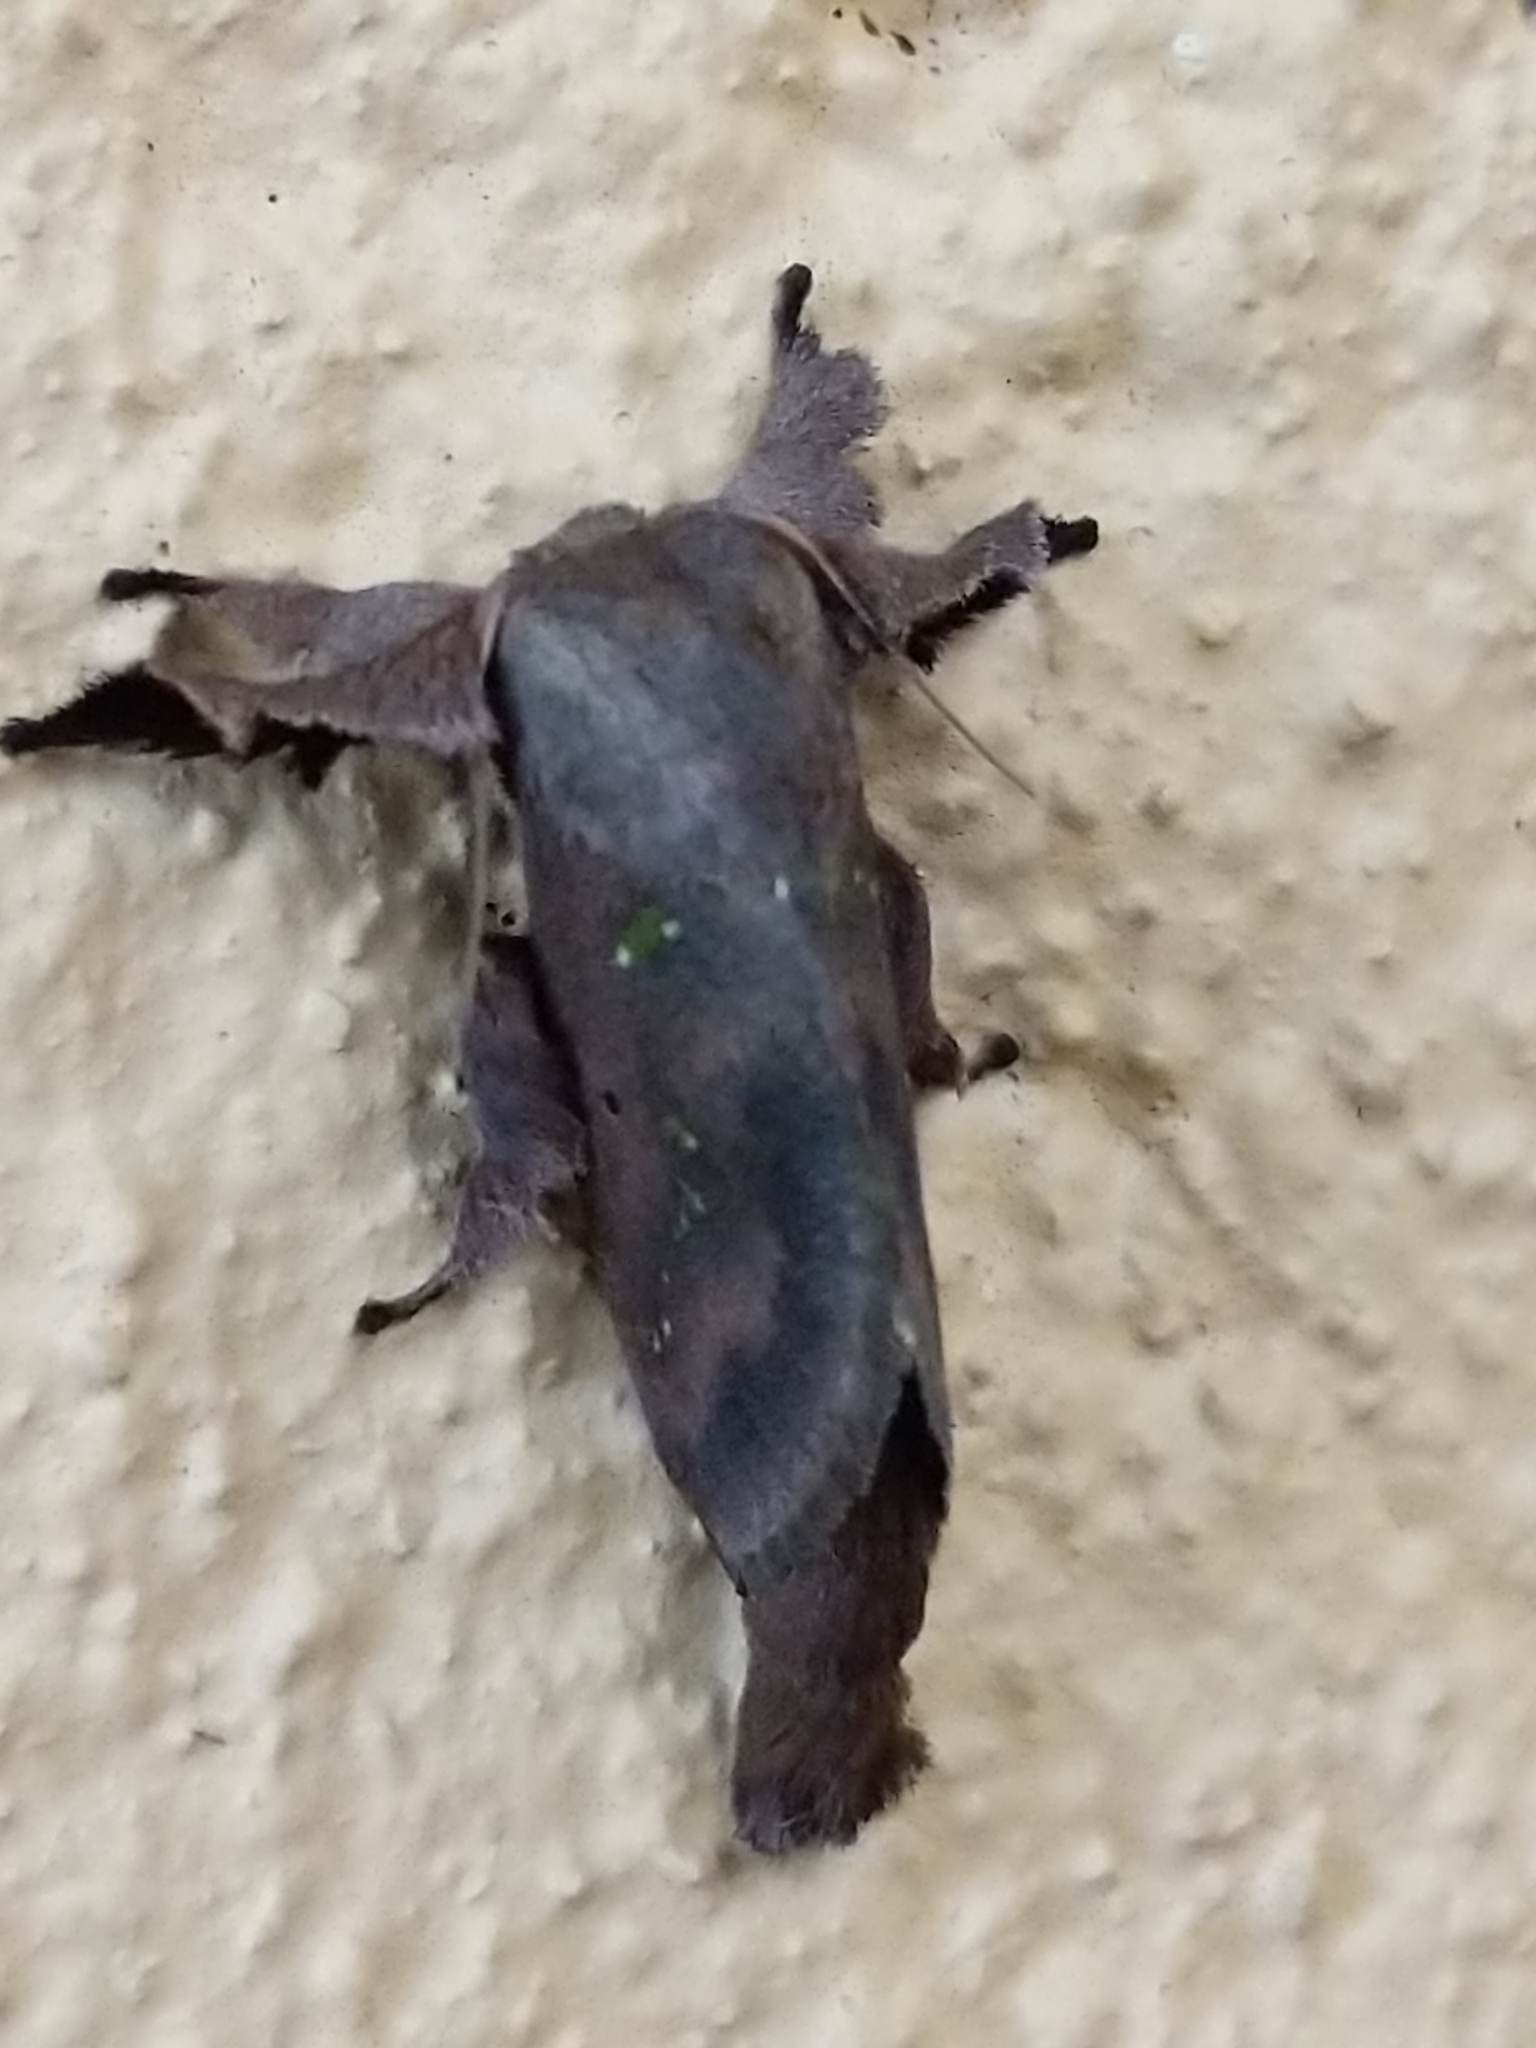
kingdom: Animalia
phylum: Arthropoda
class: Insecta
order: Lepidoptera
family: Limacodidae
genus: Euclea
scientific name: Euclea norba
